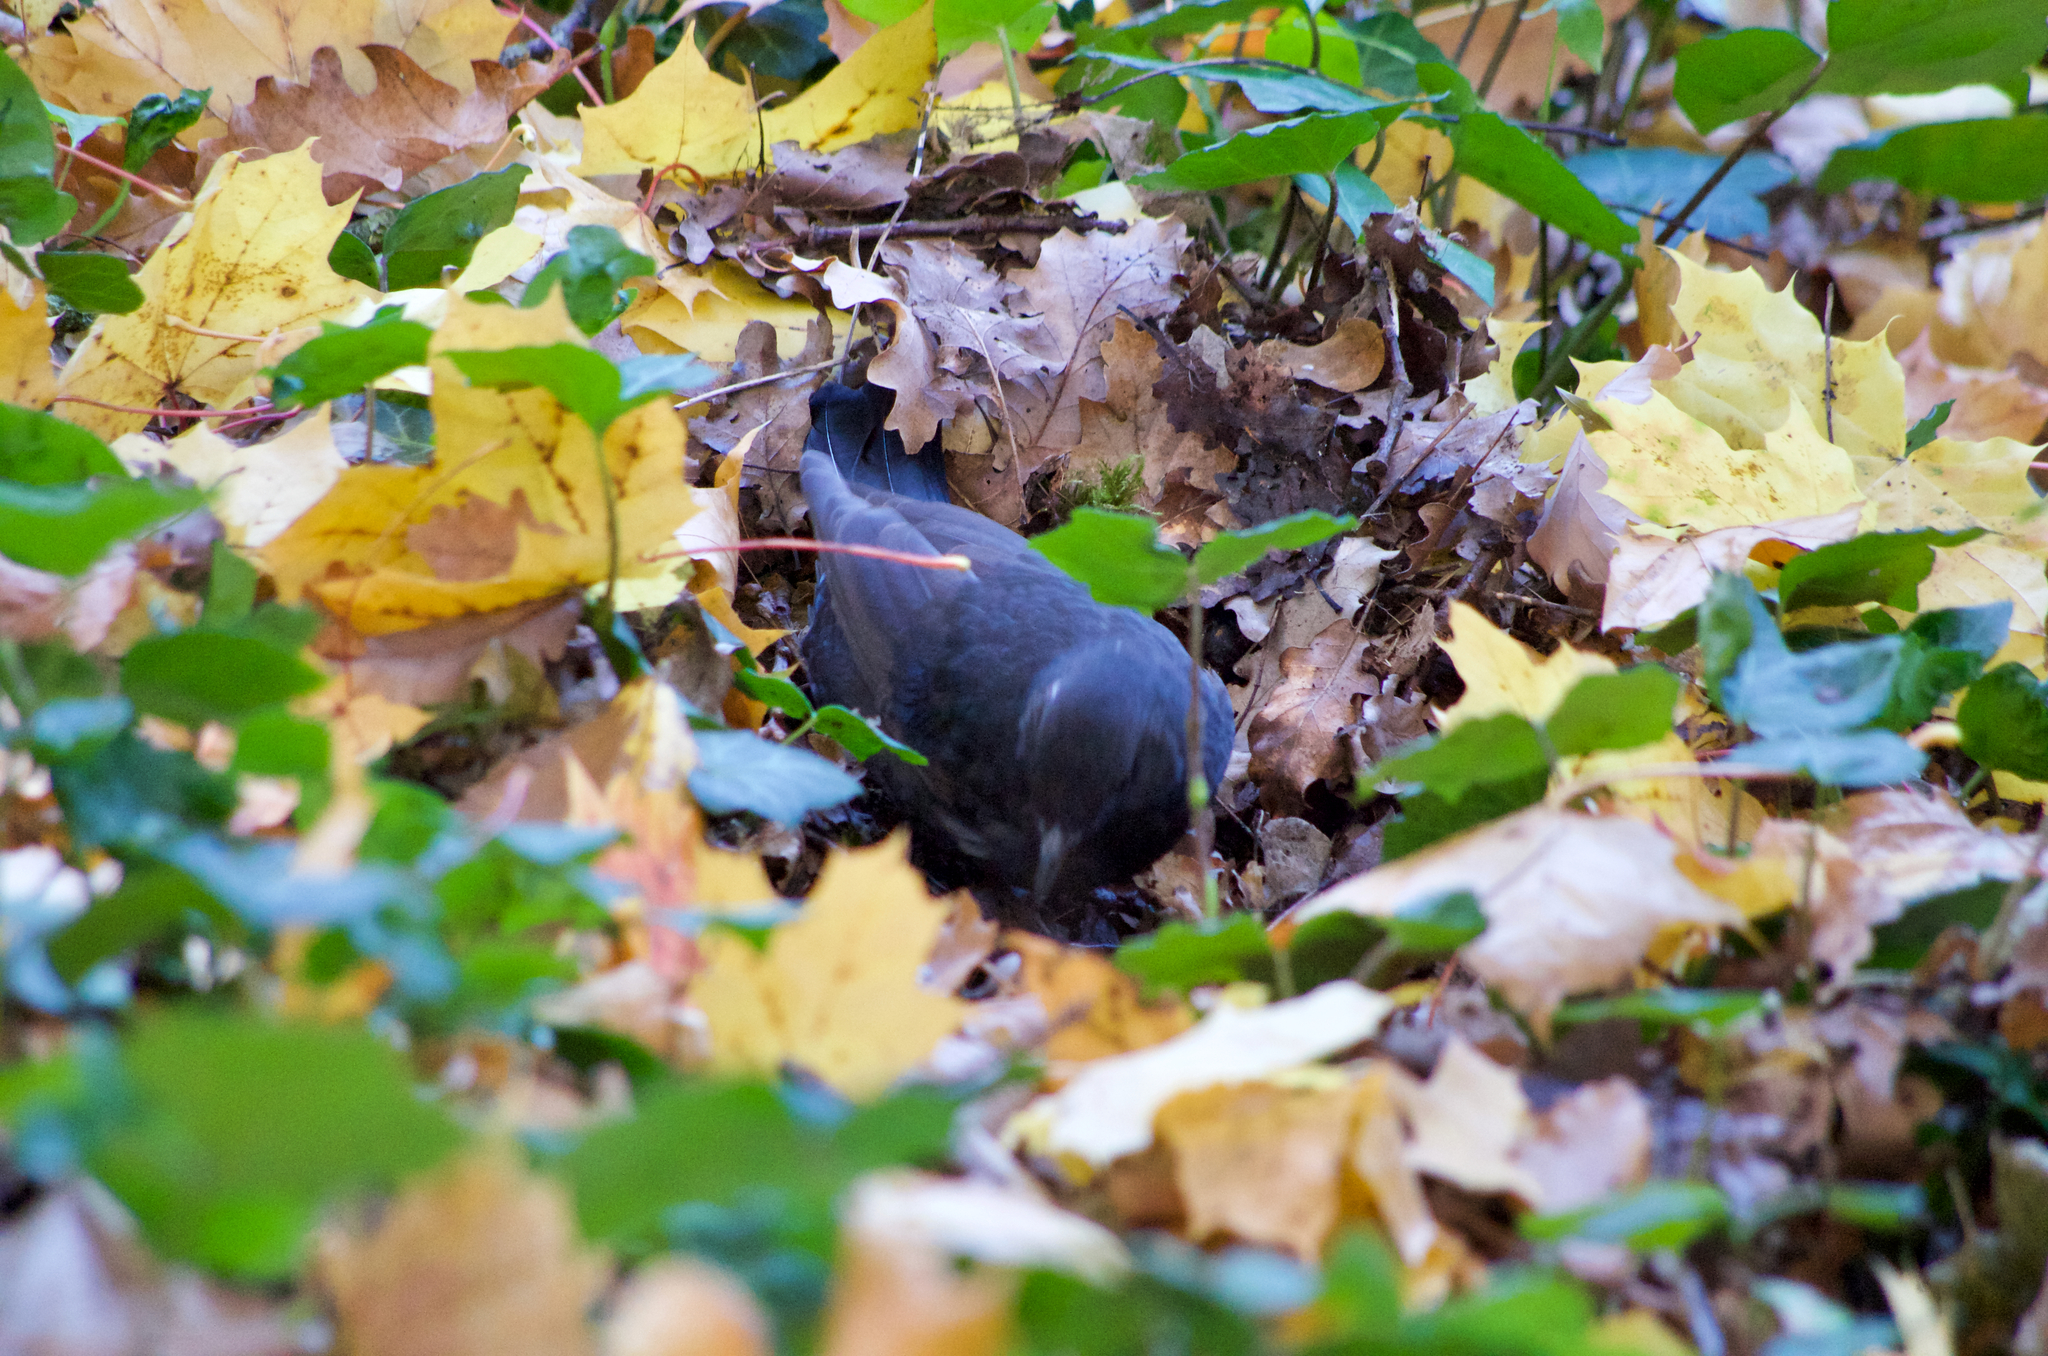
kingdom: Animalia
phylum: Chordata
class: Aves
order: Passeriformes
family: Turdidae
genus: Turdus
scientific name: Turdus merula
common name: Common blackbird
